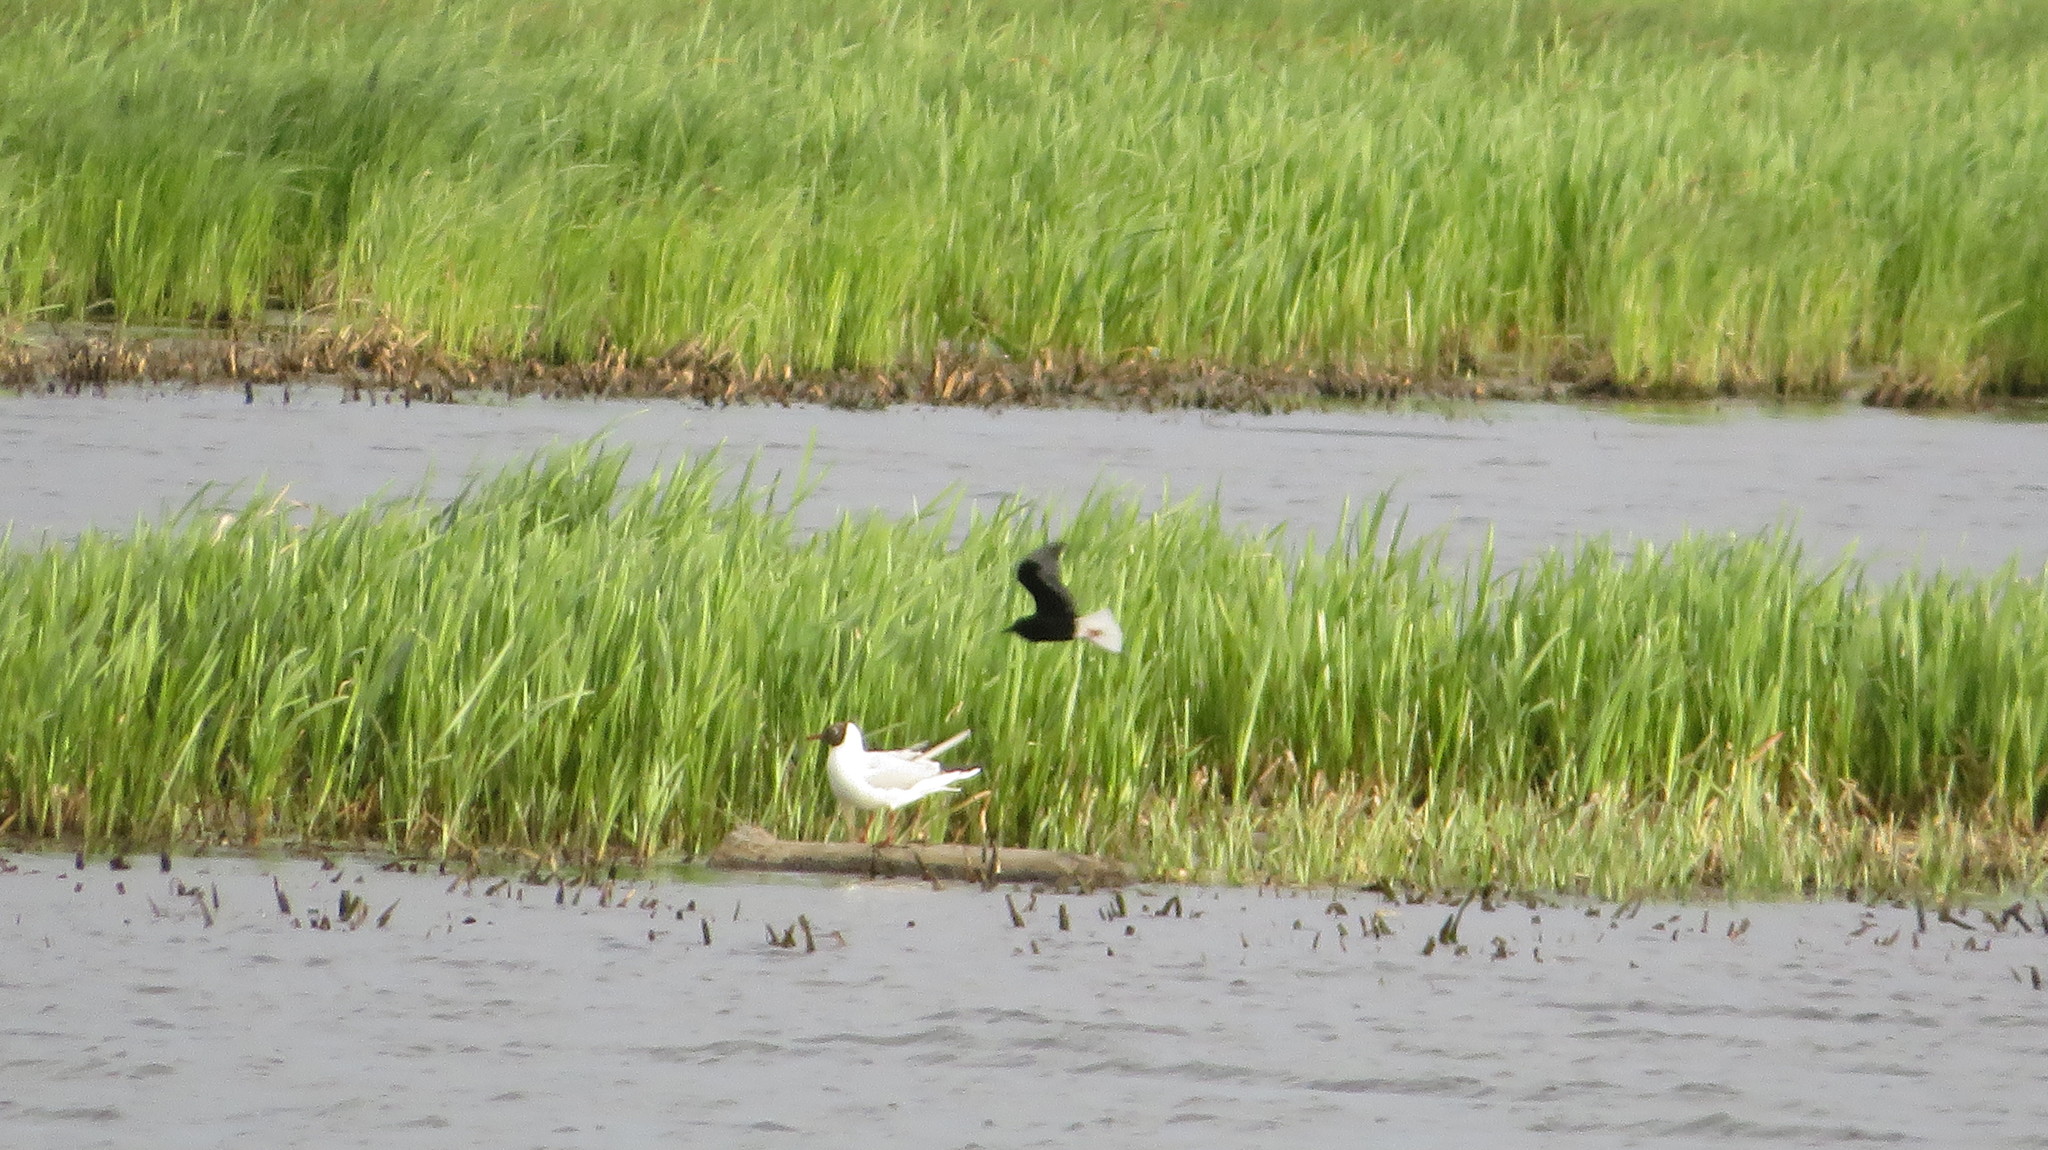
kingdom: Animalia
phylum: Chordata
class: Aves
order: Charadriiformes
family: Laridae
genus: Chlidonias
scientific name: Chlidonias leucopterus
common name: White-winged tern
